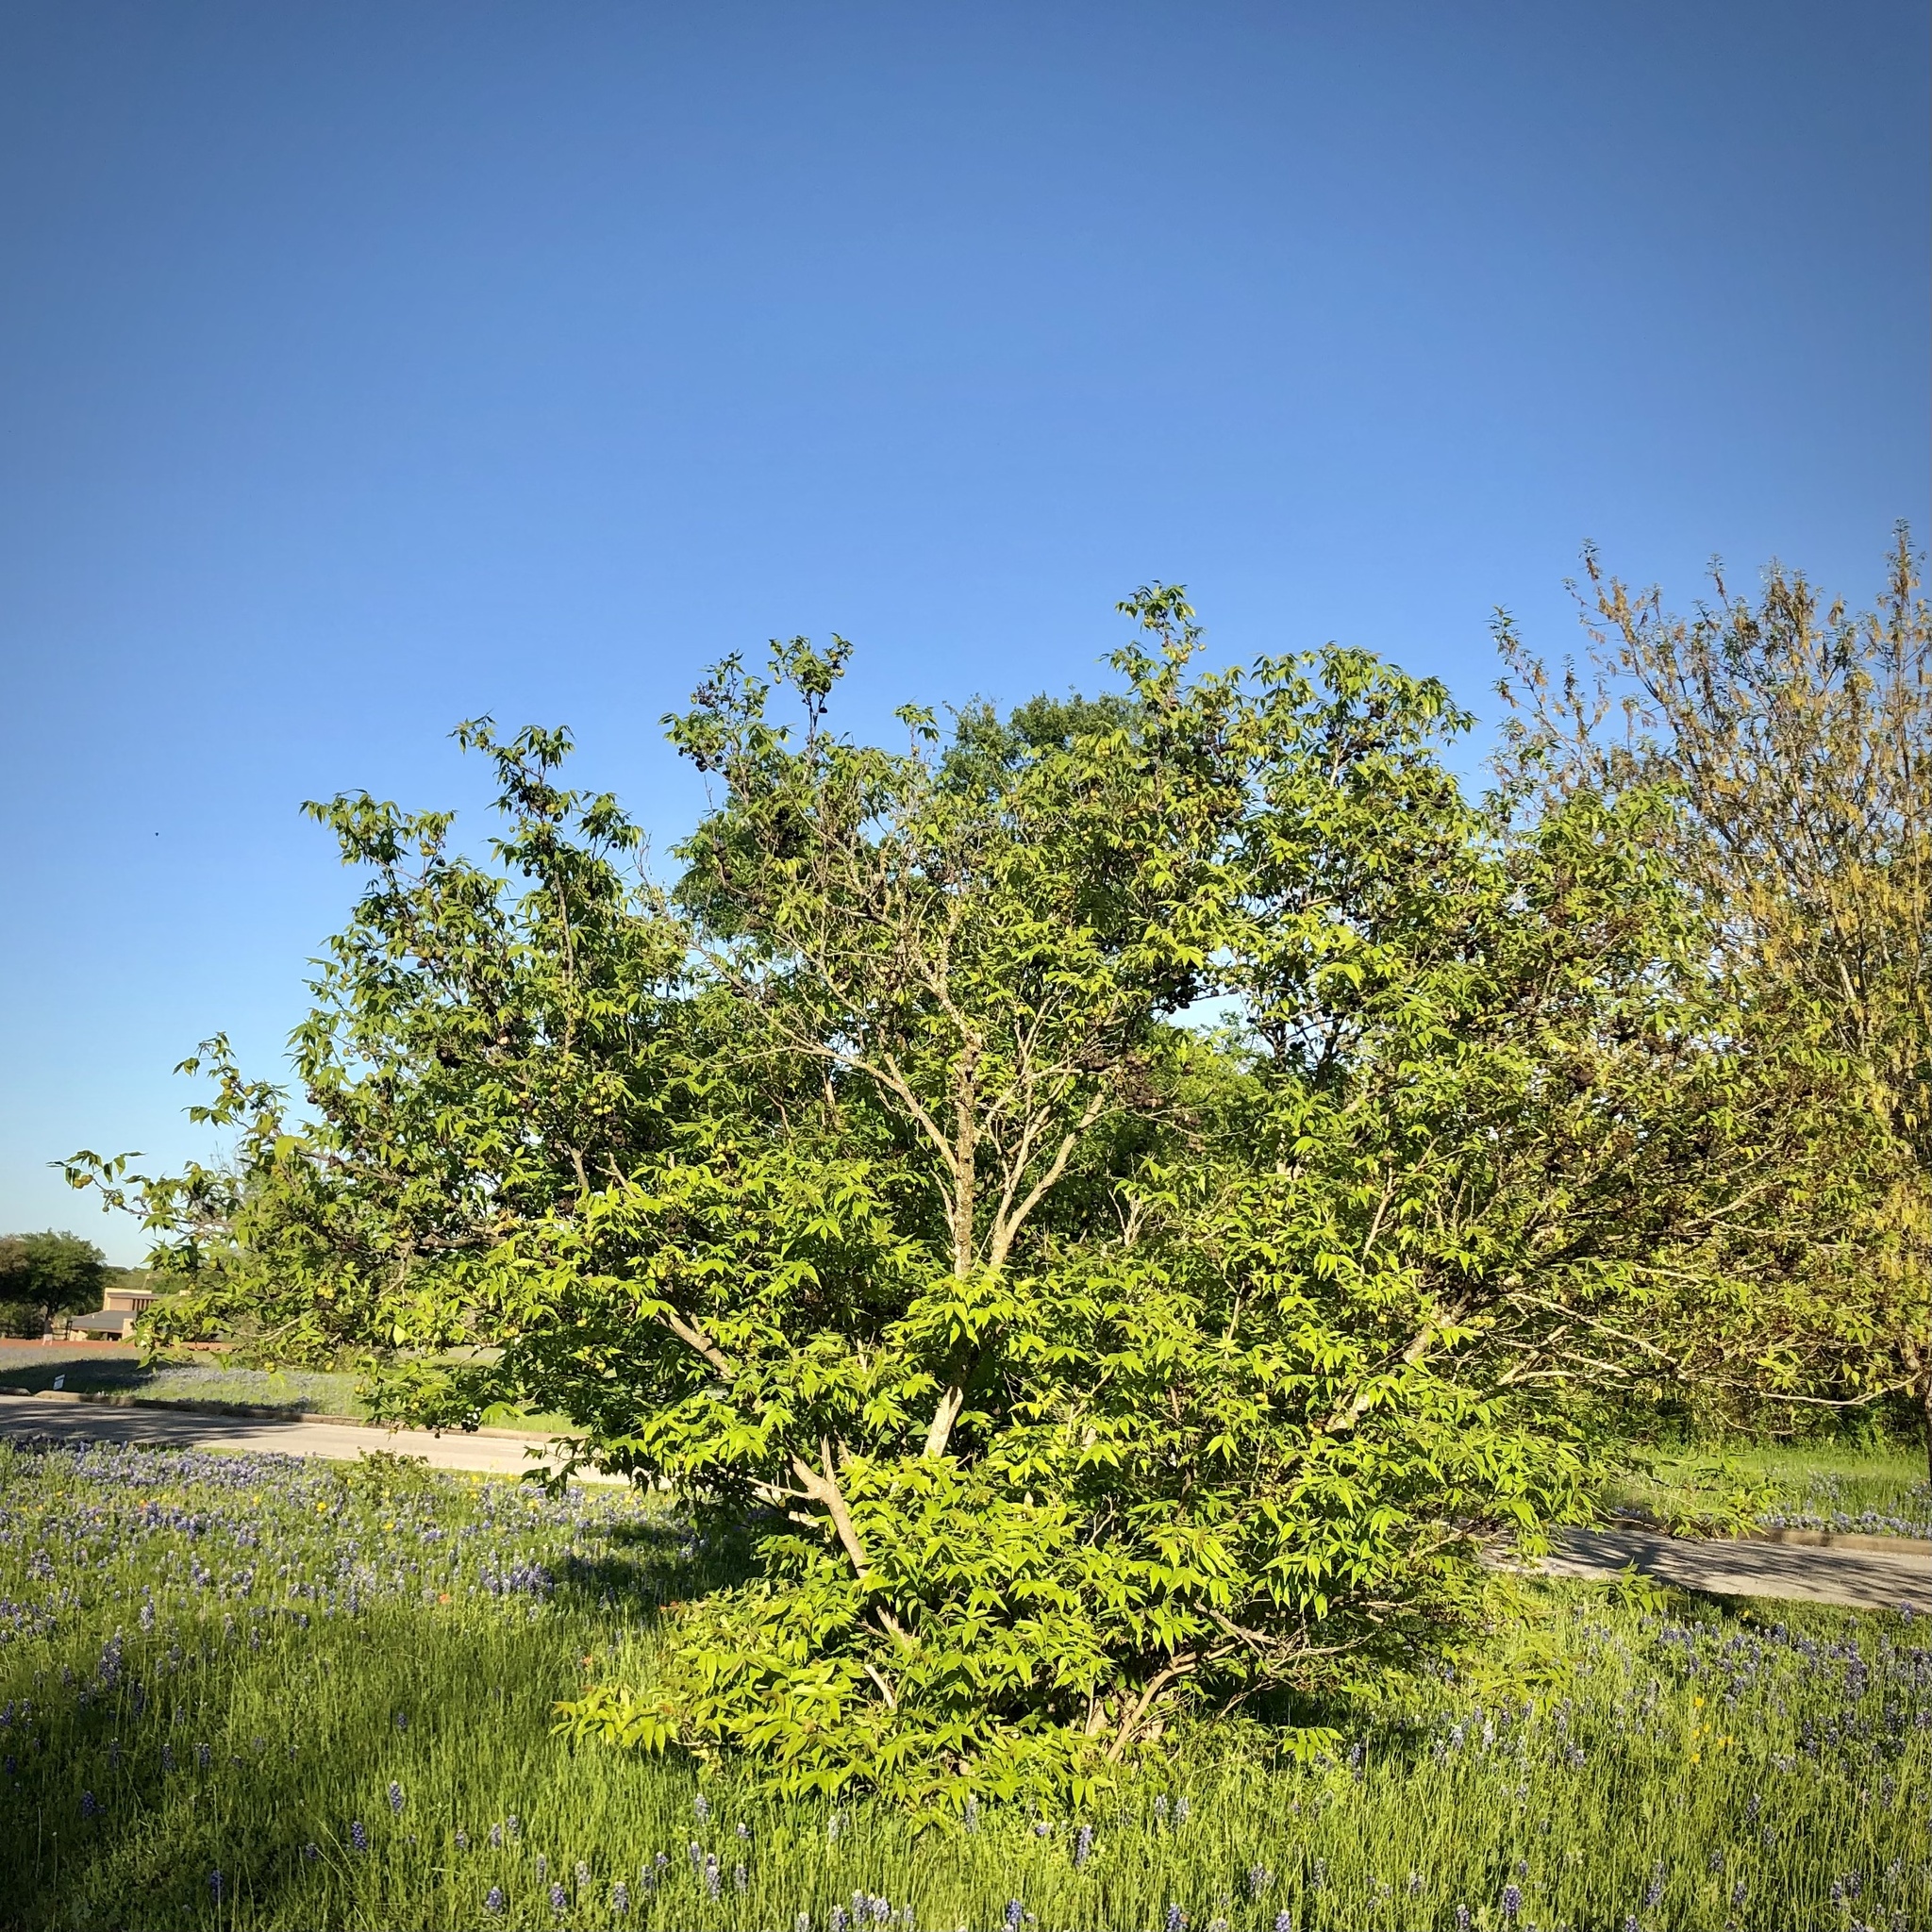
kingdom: Plantae
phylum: Tracheophyta
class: Magnoliopsida
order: Sapindales
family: Sapindaceae
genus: Ungnadia
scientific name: Ungnadia speciosa
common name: Texas-buckeye
